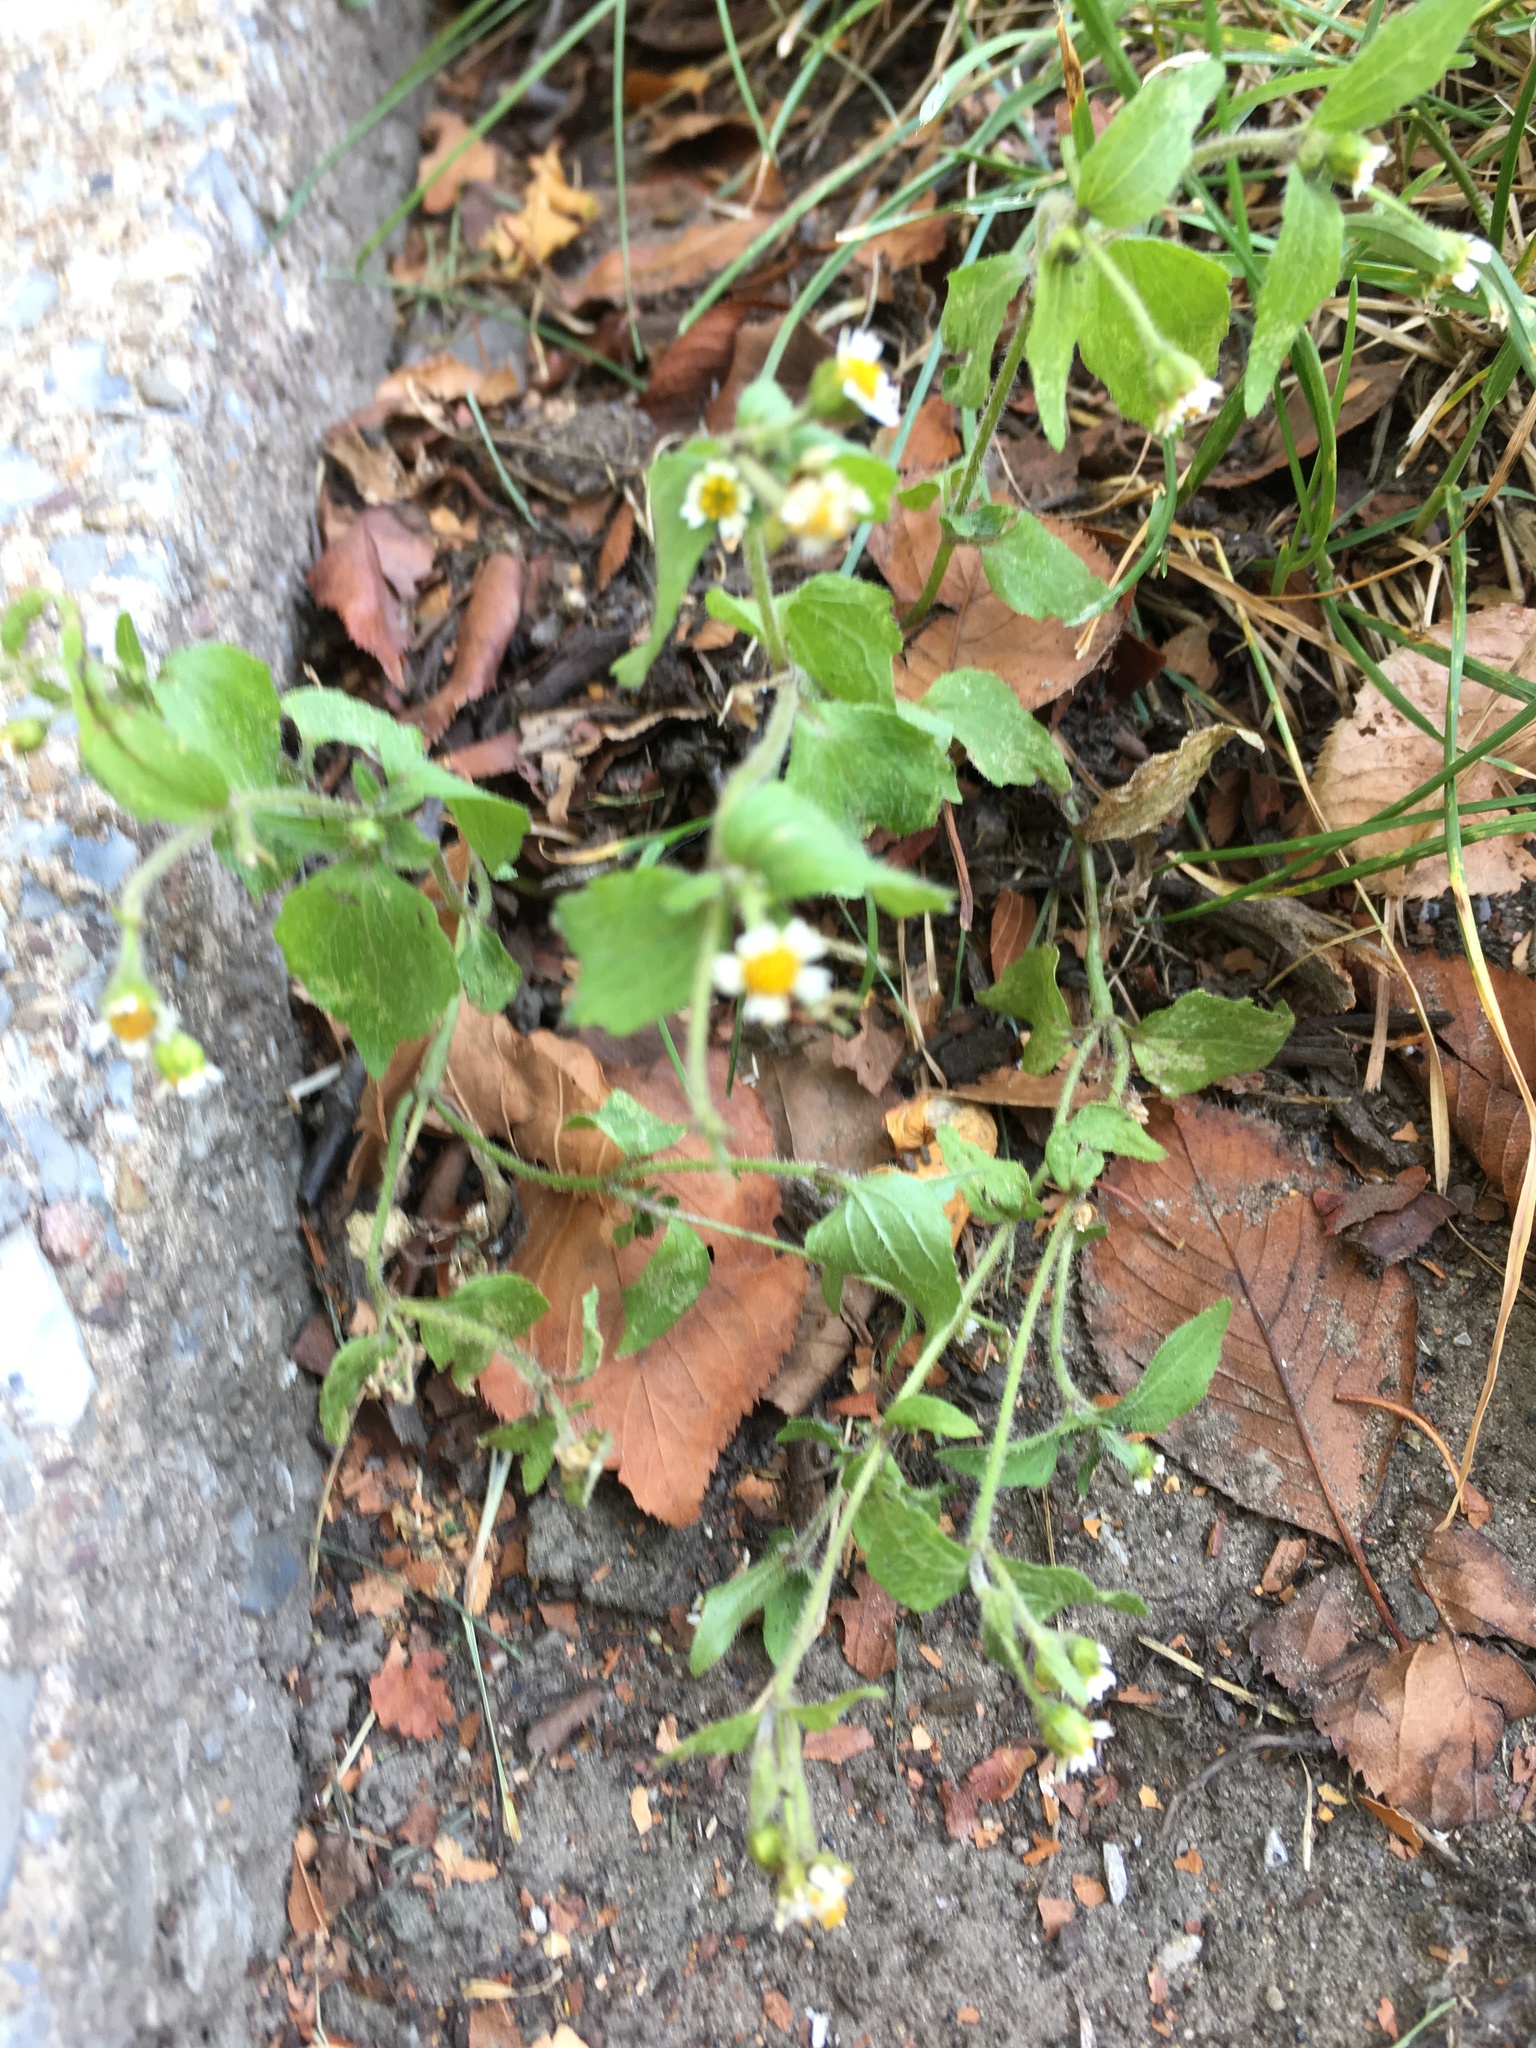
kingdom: Plantae
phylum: Tracheophyta
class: Magnoliopsida
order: Asterales
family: Asteraceae
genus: Galinsoga
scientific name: Galinsoga quadriradiata
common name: Shaggy soldier
